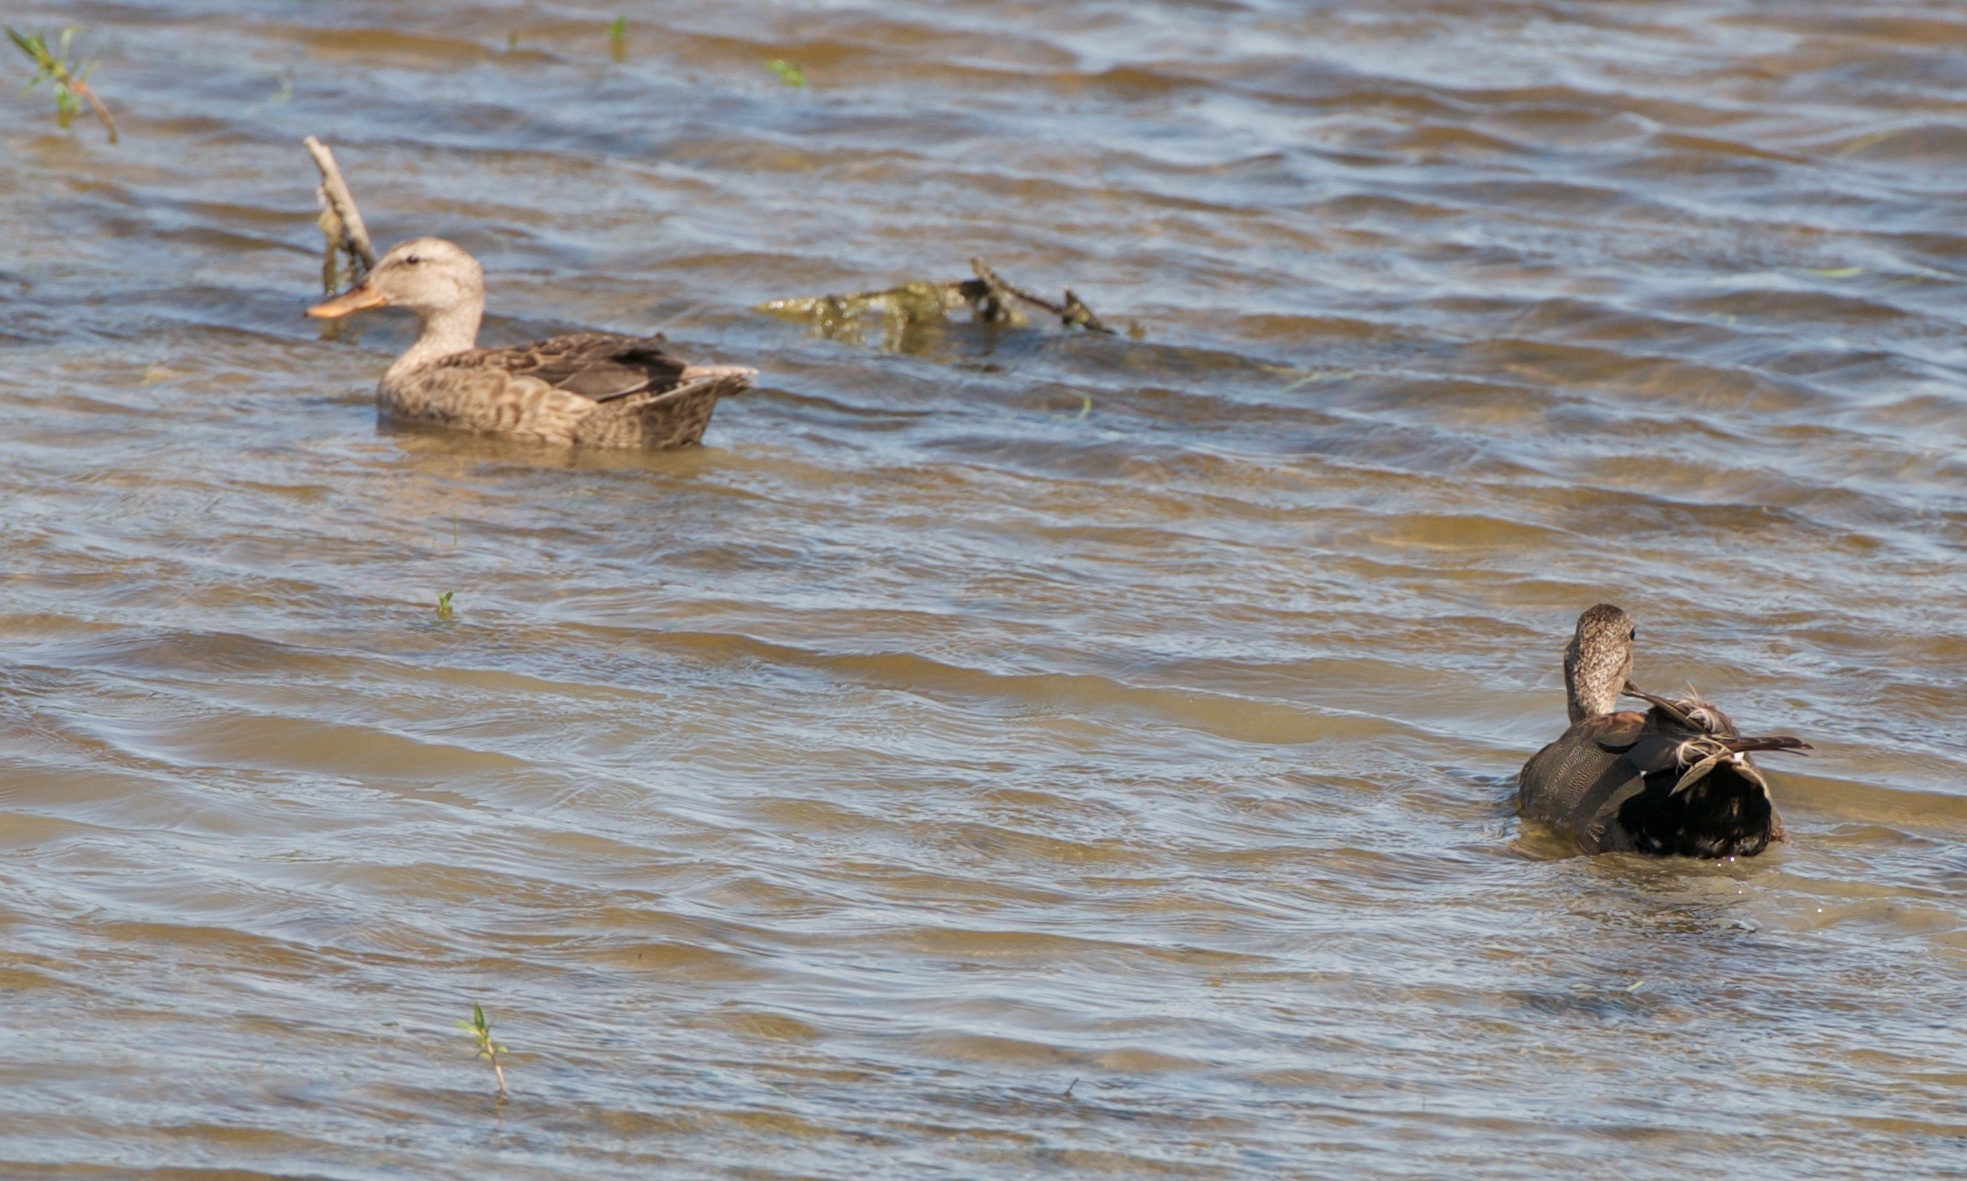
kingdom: Animalia
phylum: Chordata
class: Aves
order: Anseriformes
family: Anatidae
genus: Mareca
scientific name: Mareca strepera
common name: Gadwall
